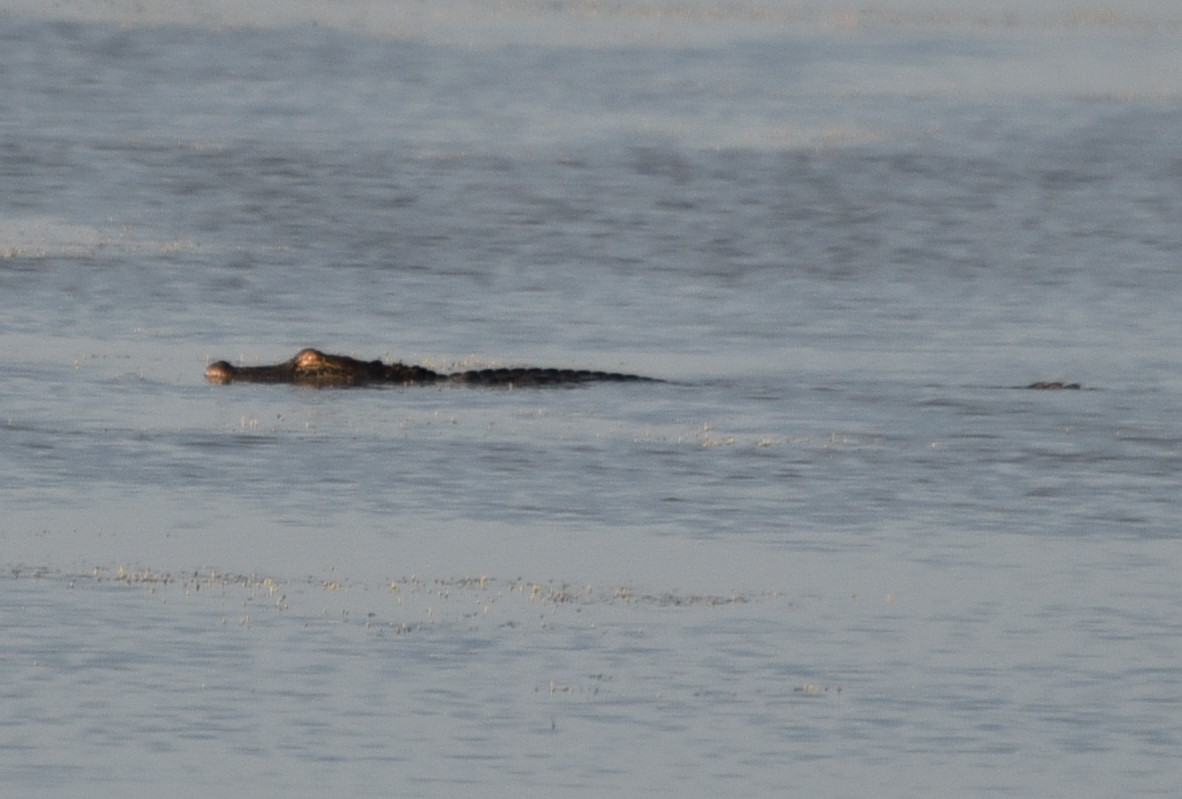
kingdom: Animalia
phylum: Chordata
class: Crocodylia
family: Alligatoridae
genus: Alligator
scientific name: Alligator mississippiensis
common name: American alligator
